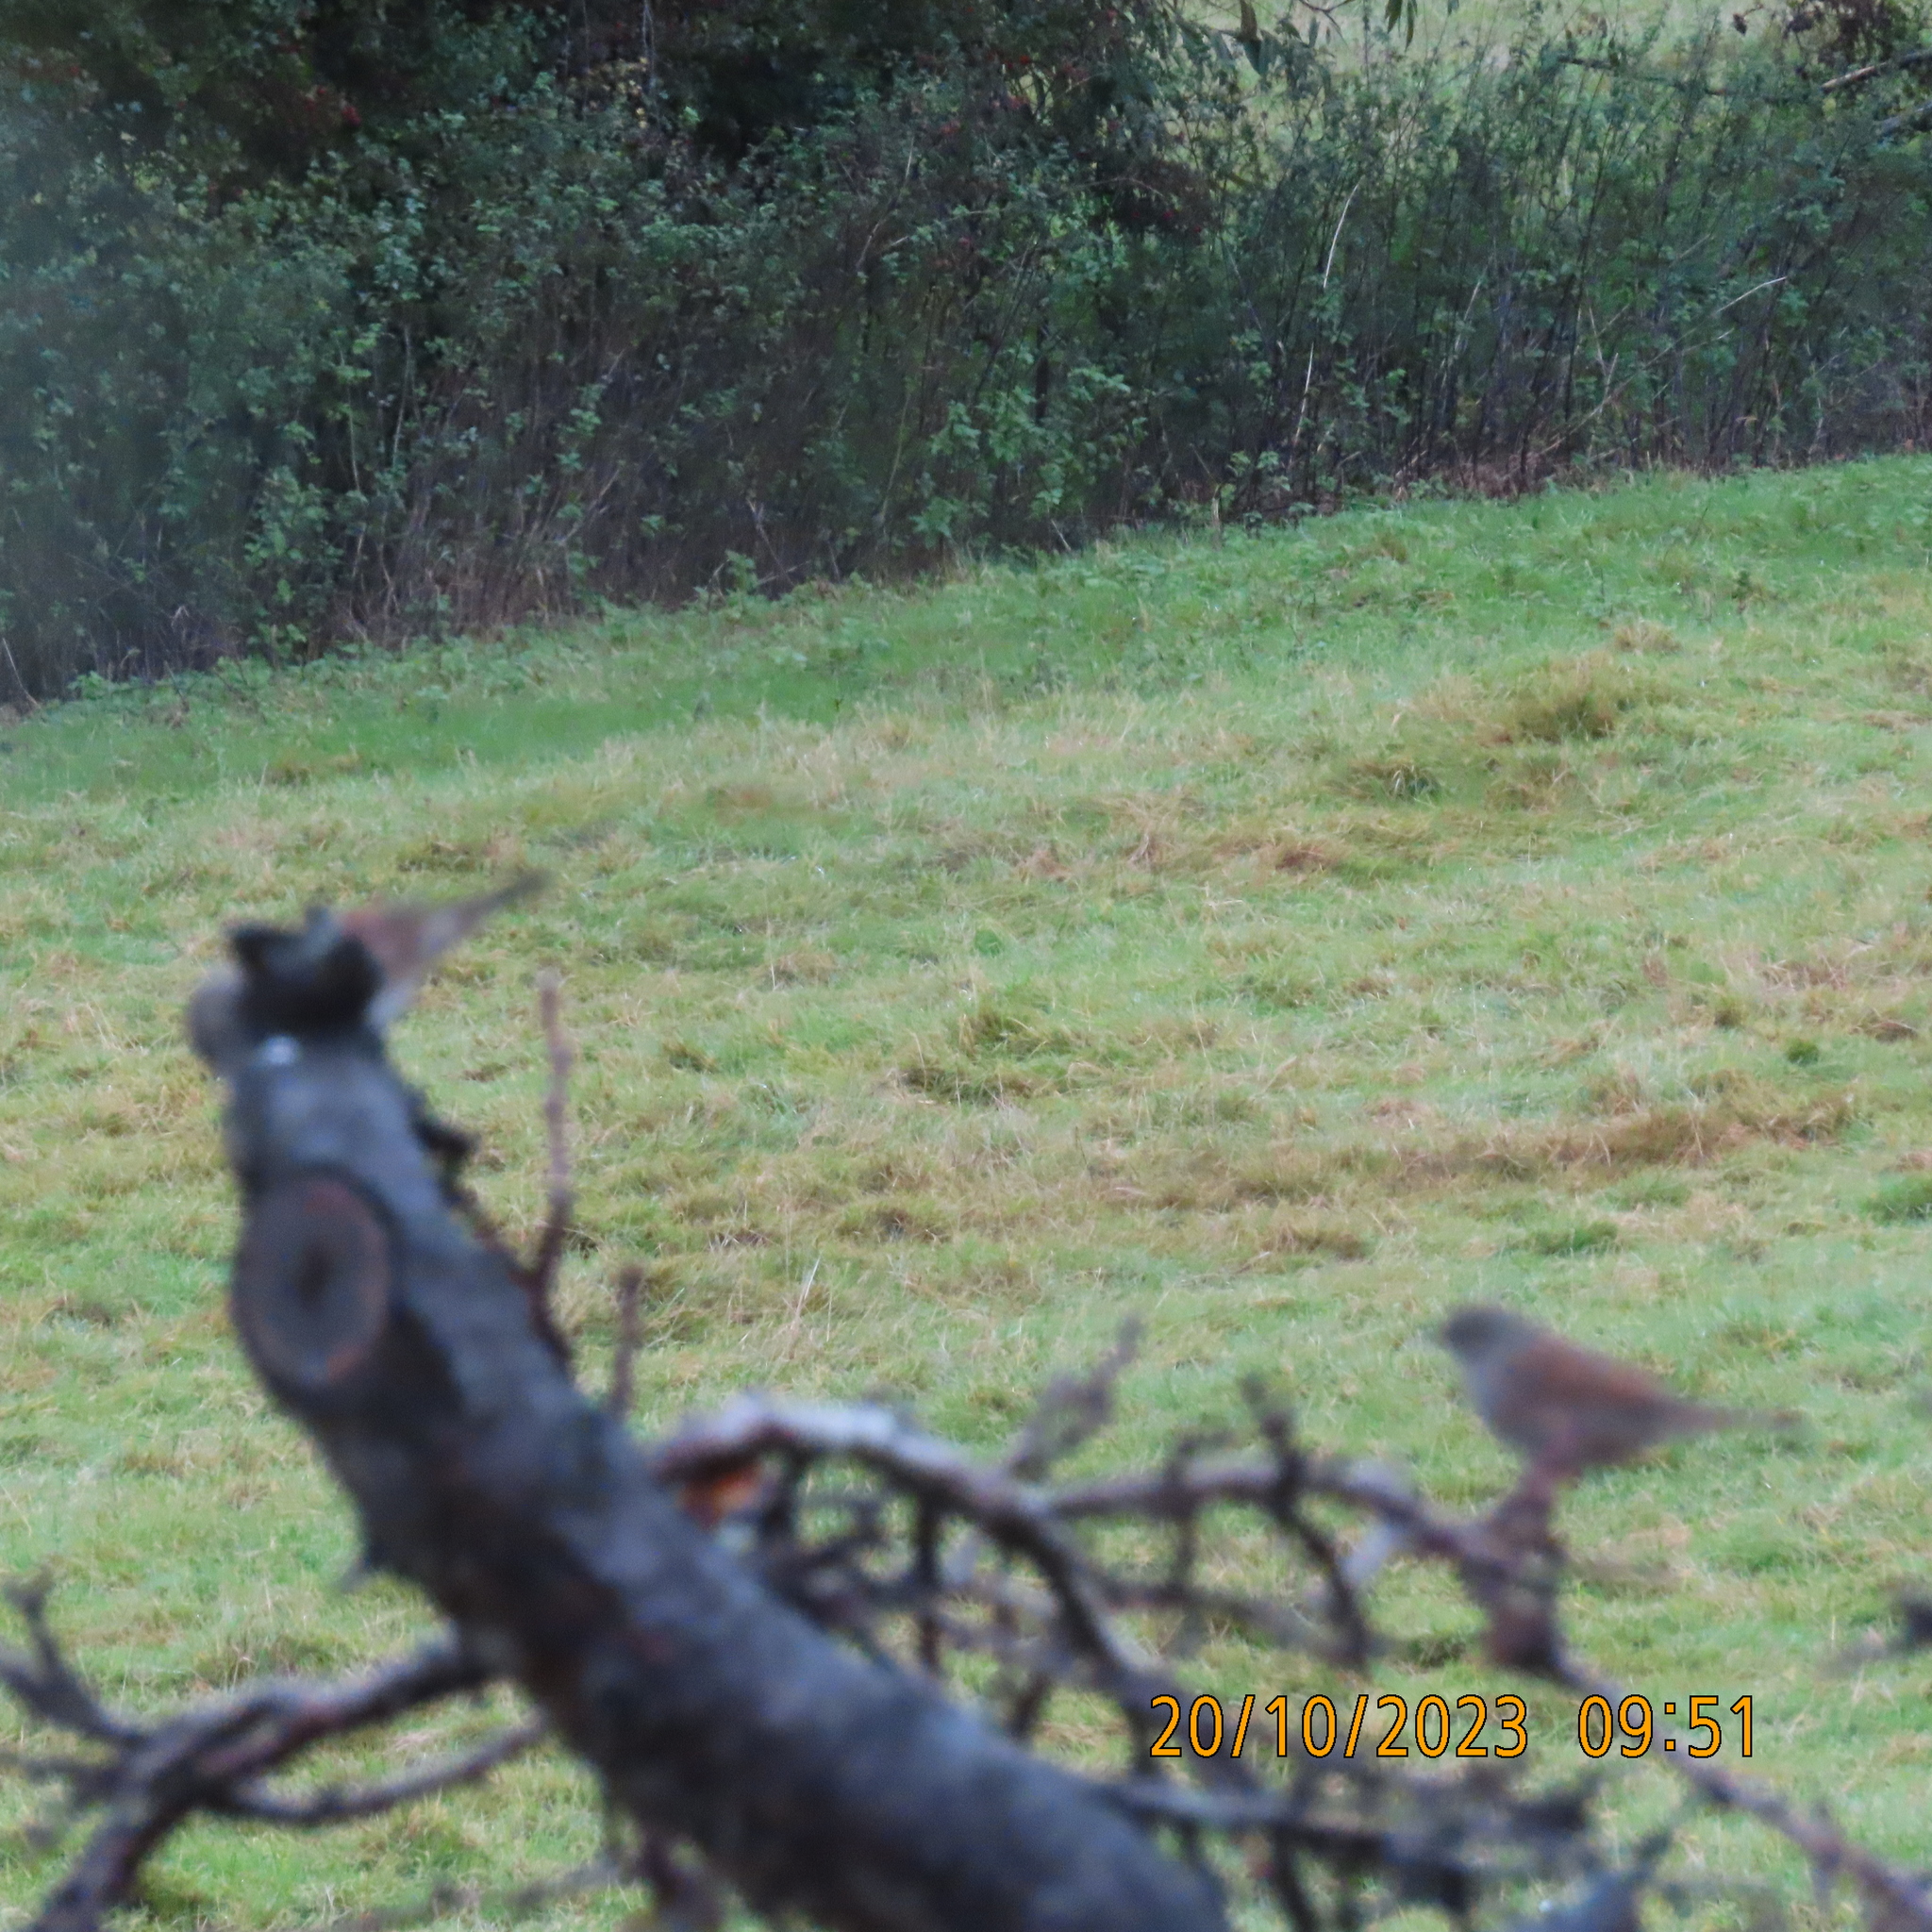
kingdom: Animalia
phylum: Chordata
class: Aves
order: Passeriformes
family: Prunellidae
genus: Prunella
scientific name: Prunella modularis
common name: Dunnock
